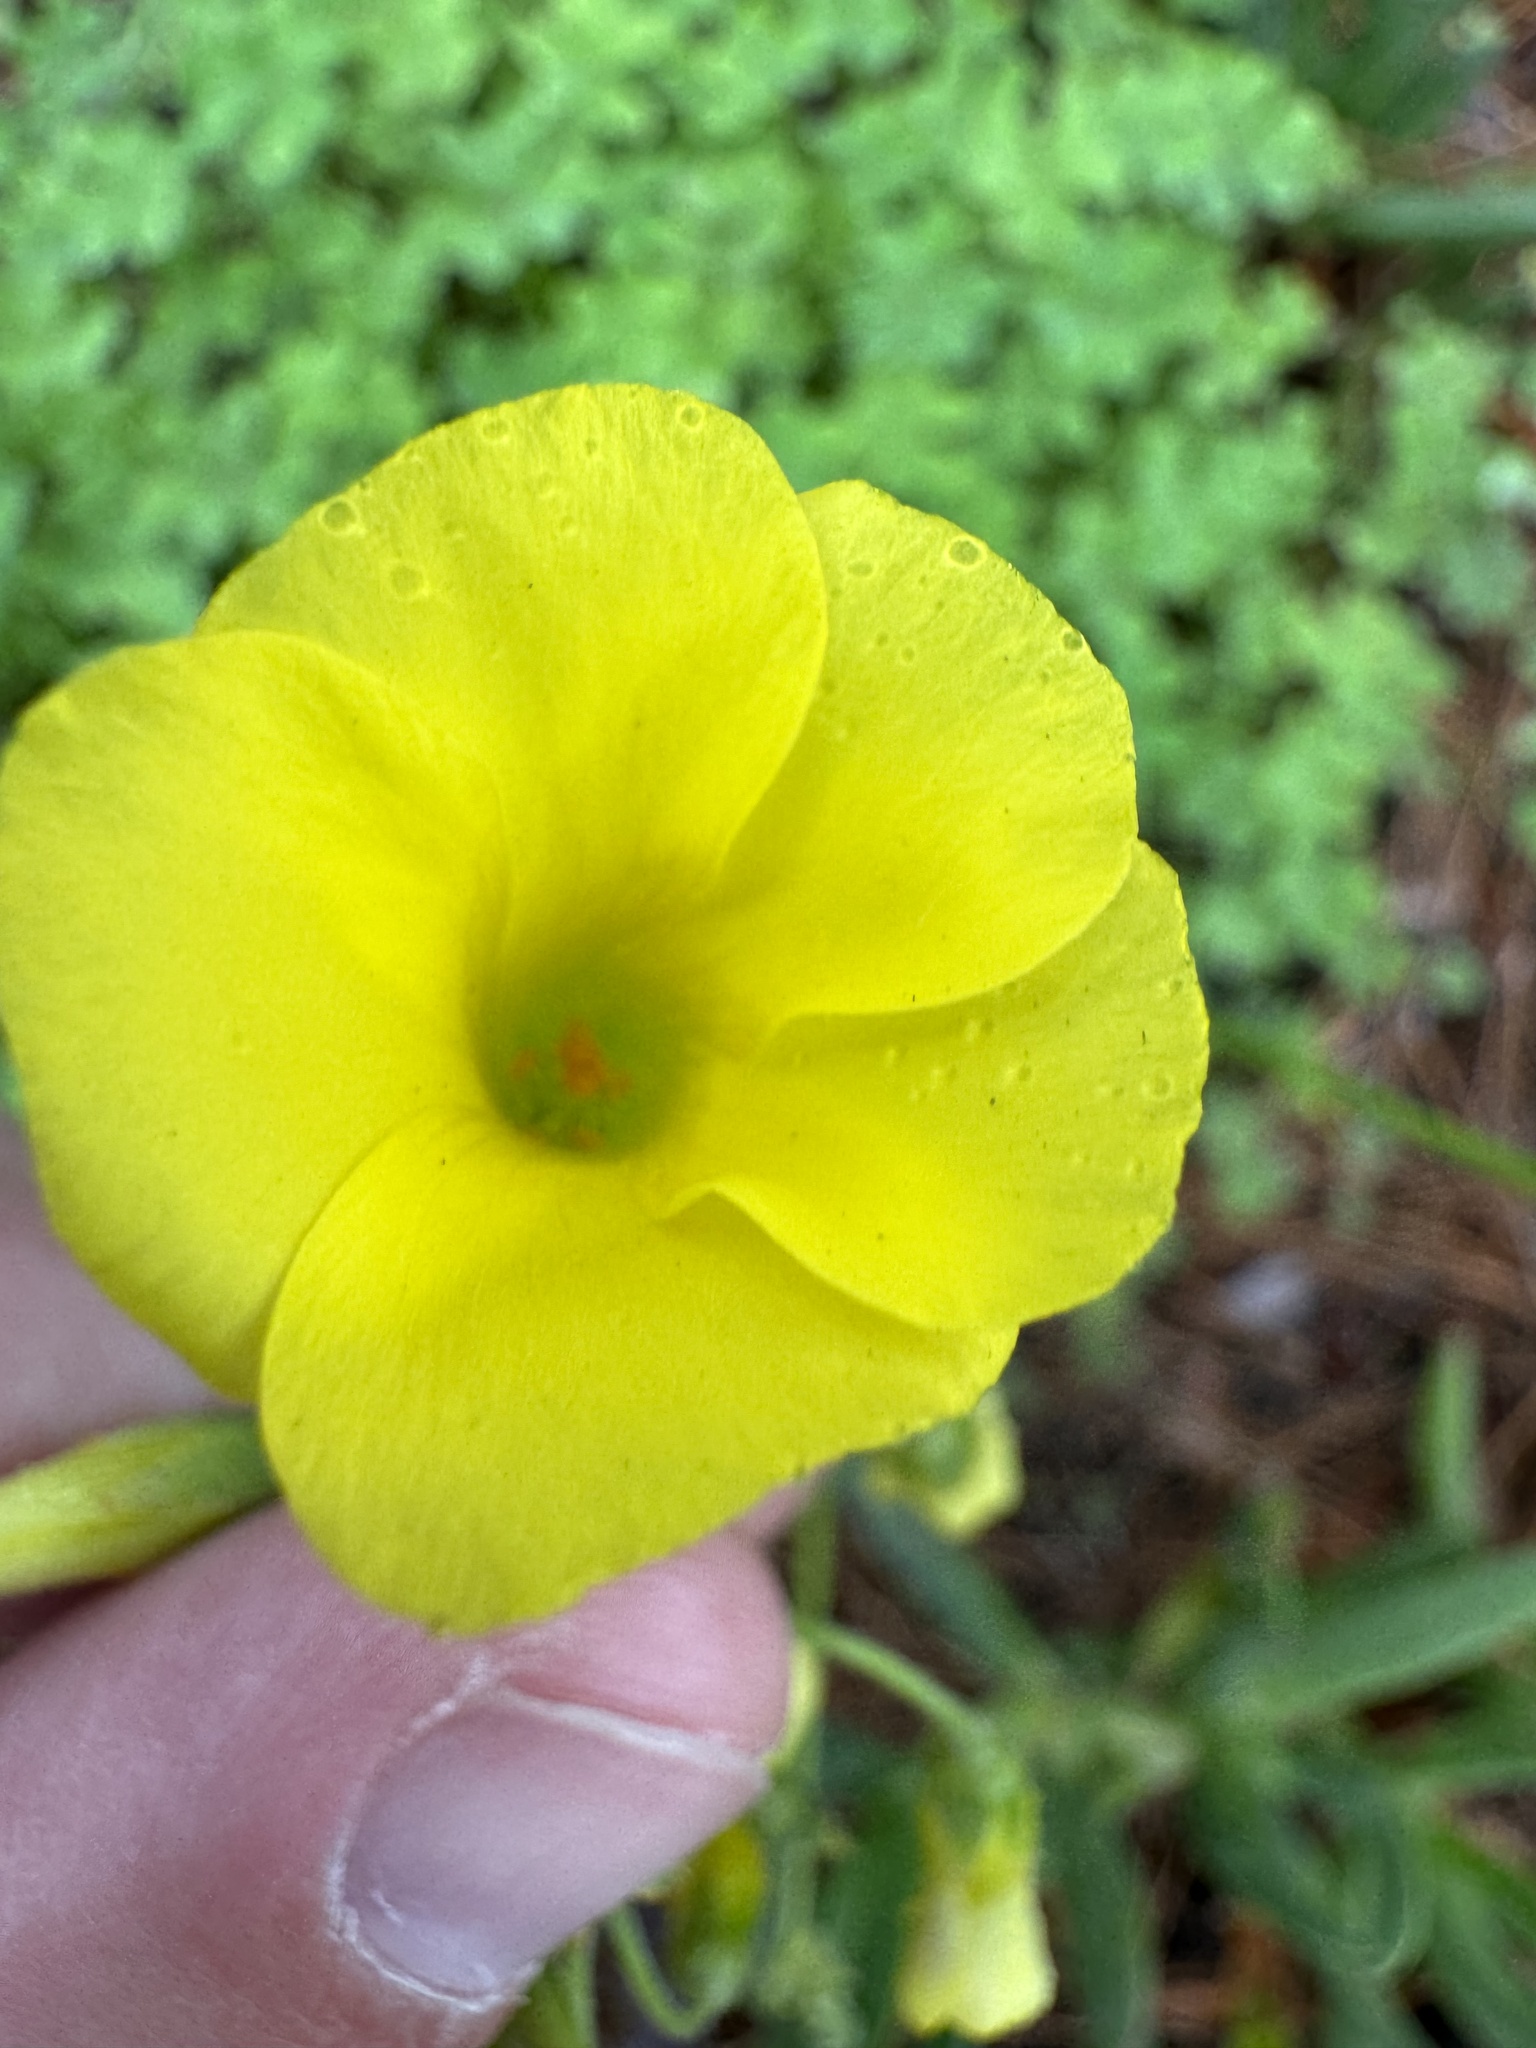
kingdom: Plantae
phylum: Tracheophyta
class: Magnoliopsida
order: Oxalidales
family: Oxalidaceae
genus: Oxalis
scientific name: Oxalis pes-caprae
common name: Bermuda-buttercup
